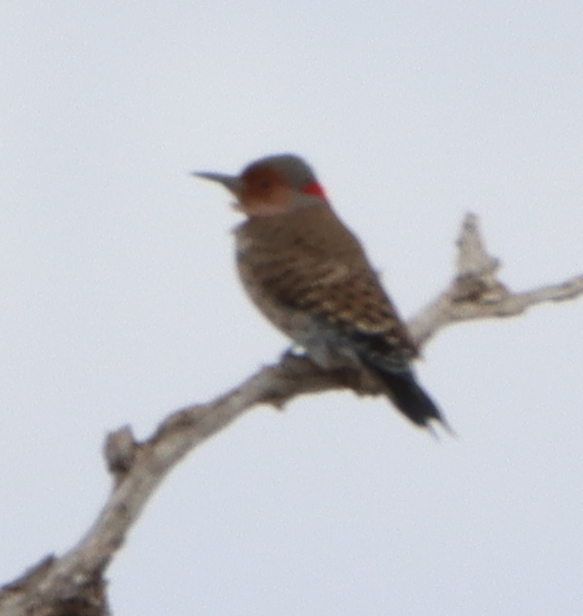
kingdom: Animalia
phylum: Chordata
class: Aves
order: Piciformes
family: Picidae
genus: Colaptes
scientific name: Colaptes auratus
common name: Northern flicker
